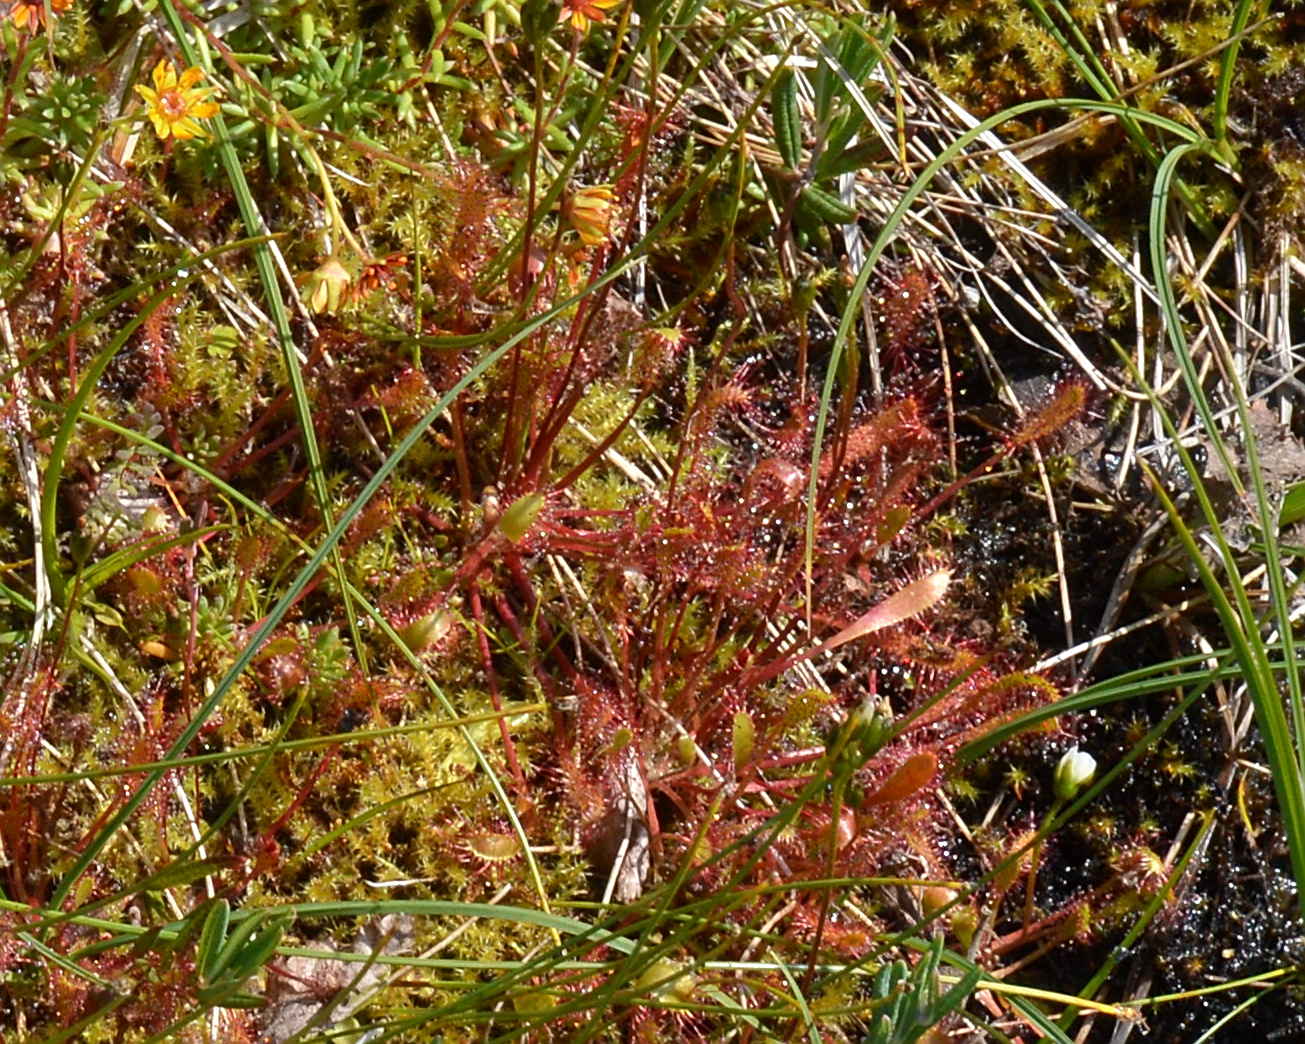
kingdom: Plantae
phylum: Tracheophyta
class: Magnoliopsida
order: Caryophyllales
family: Droseraceae
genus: Drosera
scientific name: Drosera anglica
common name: Great sundew
